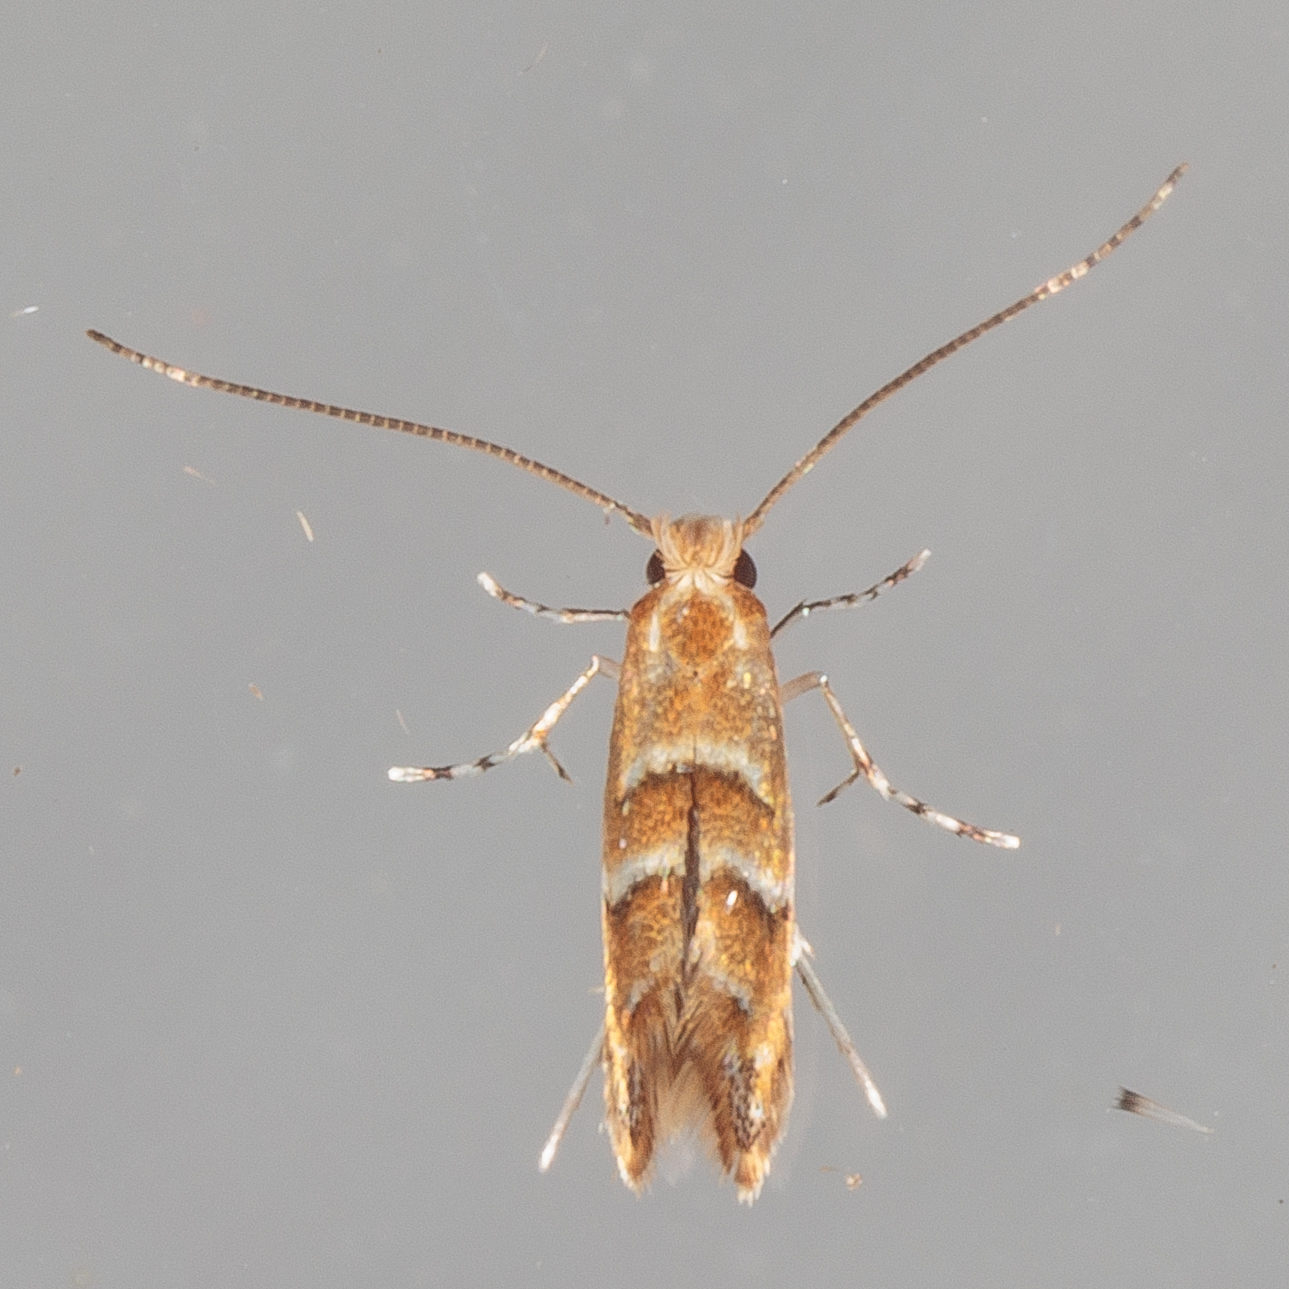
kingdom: Animalia
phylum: Arthropoda
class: Insecta
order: Lepidoptera
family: Gracillariidae
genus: Cameraria
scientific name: Cameraria caryaefoliella
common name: Pecan leafminer moth
